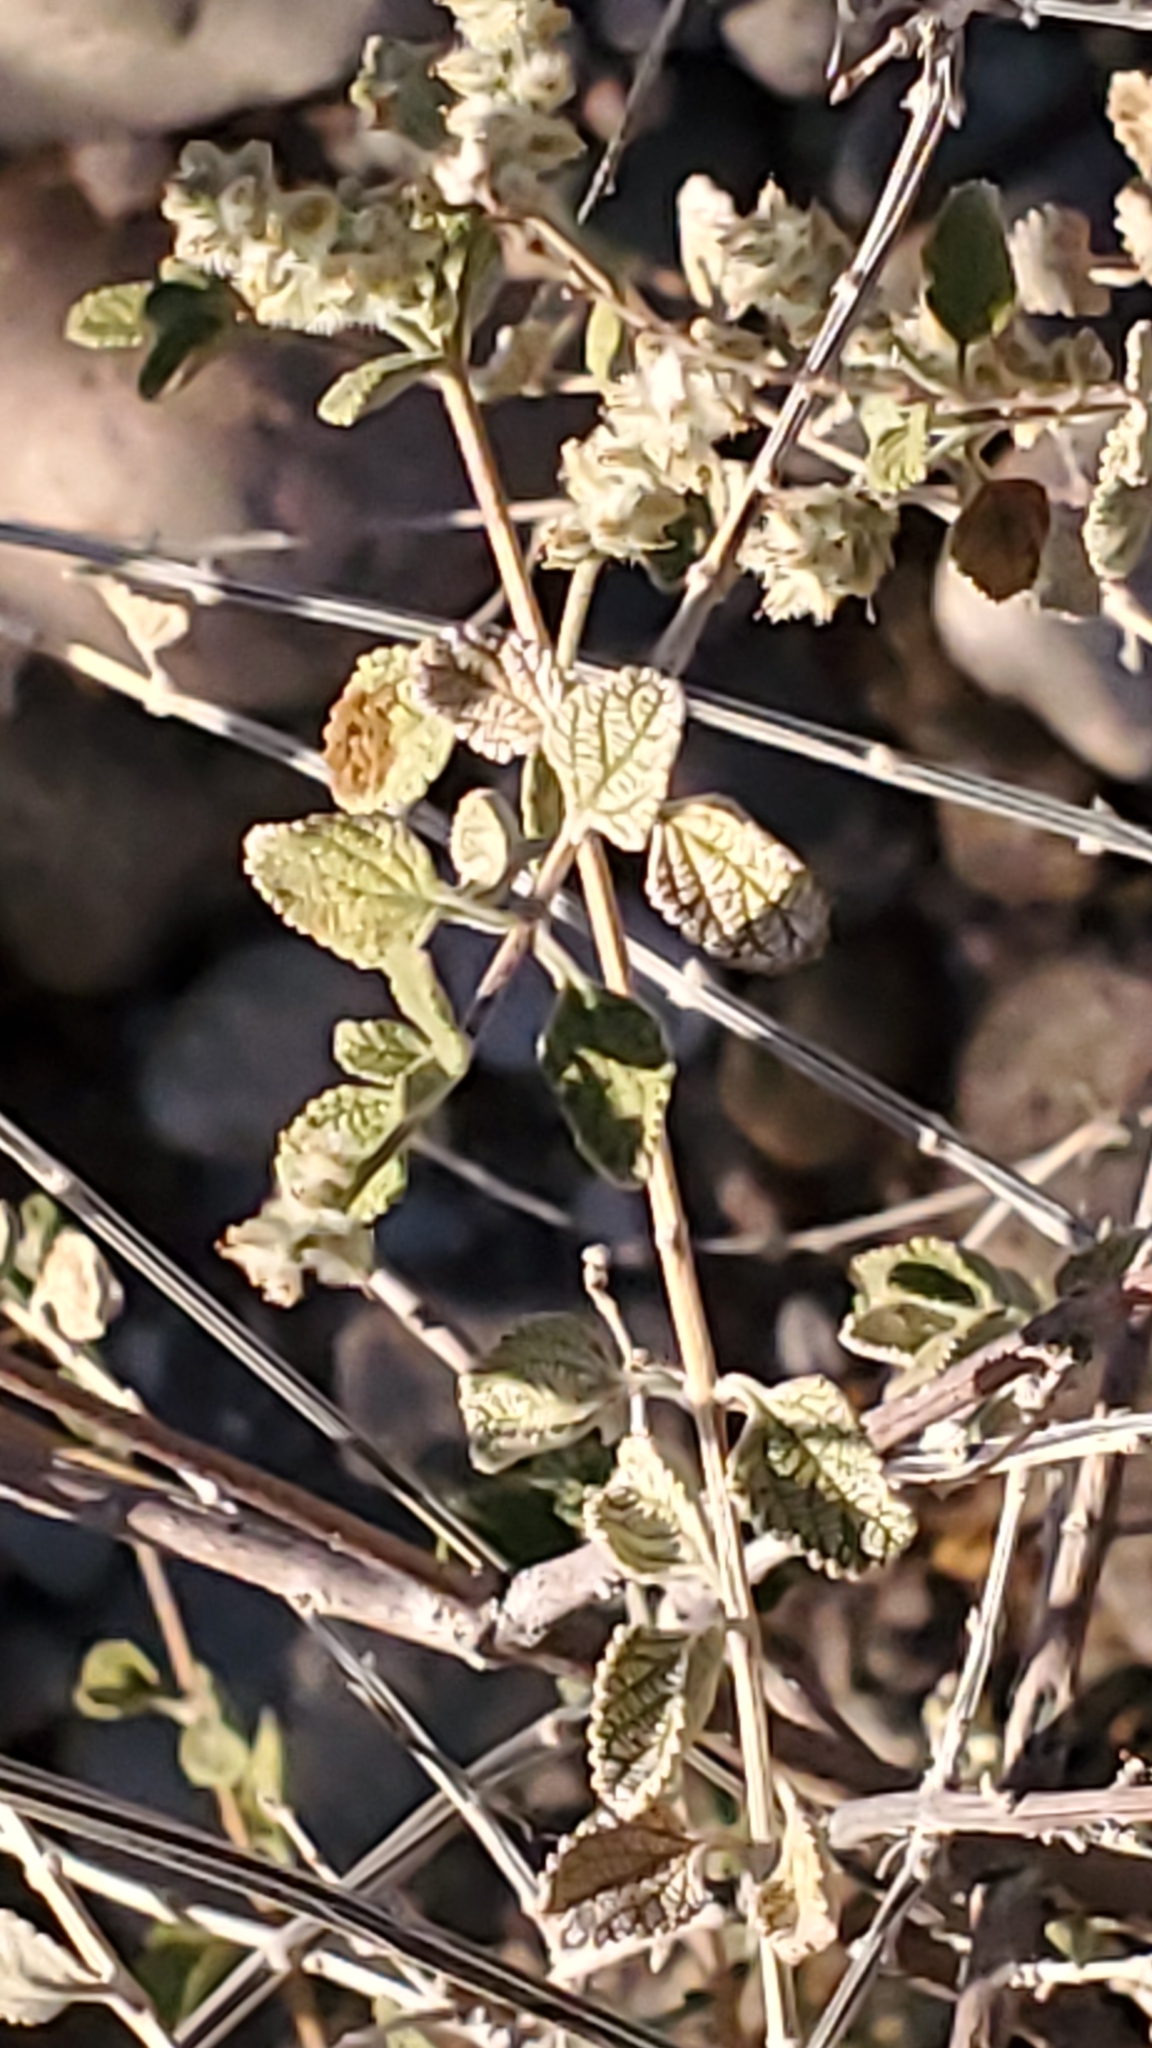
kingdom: Plantae
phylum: Tracheophyta
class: Magnoliopsida
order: Lamiales
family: Verbenaceae
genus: Aloysia
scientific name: Aloysia wrightii
